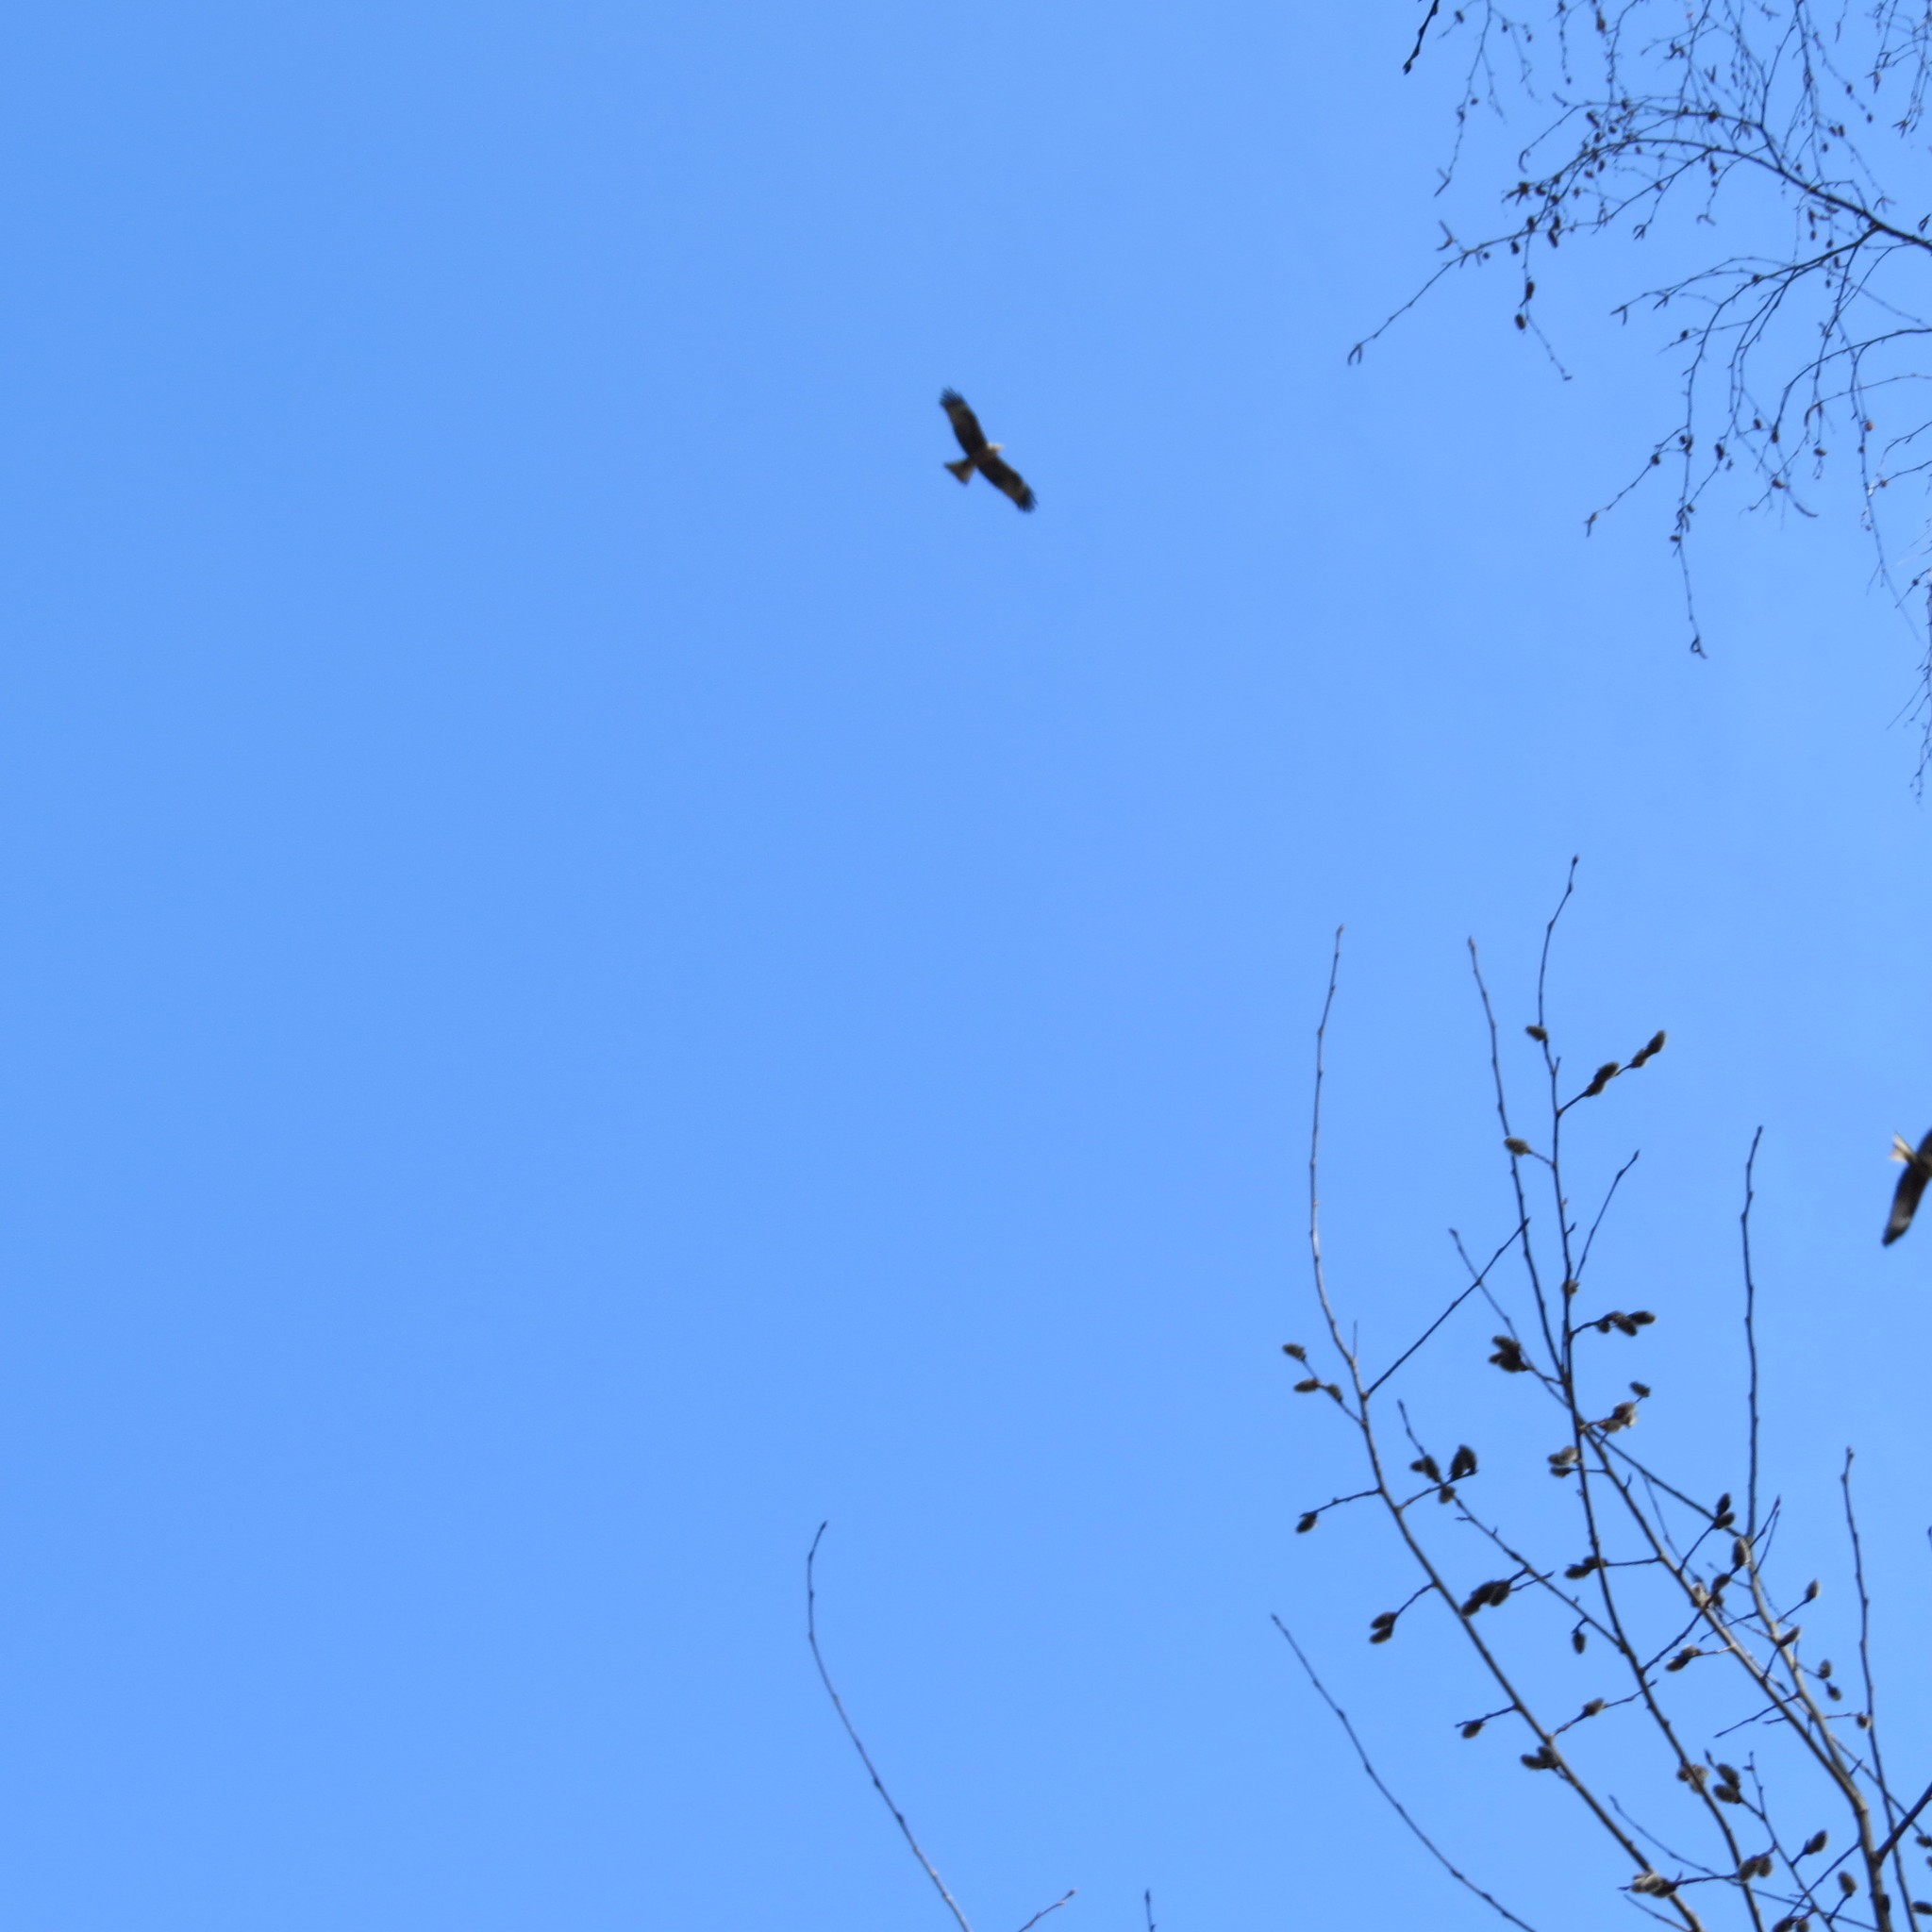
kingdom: Animalia
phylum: Chordata
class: Aves
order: Accipitriformes
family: Accipitridae
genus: Milvus
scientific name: Milvus migrans
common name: Black kite
